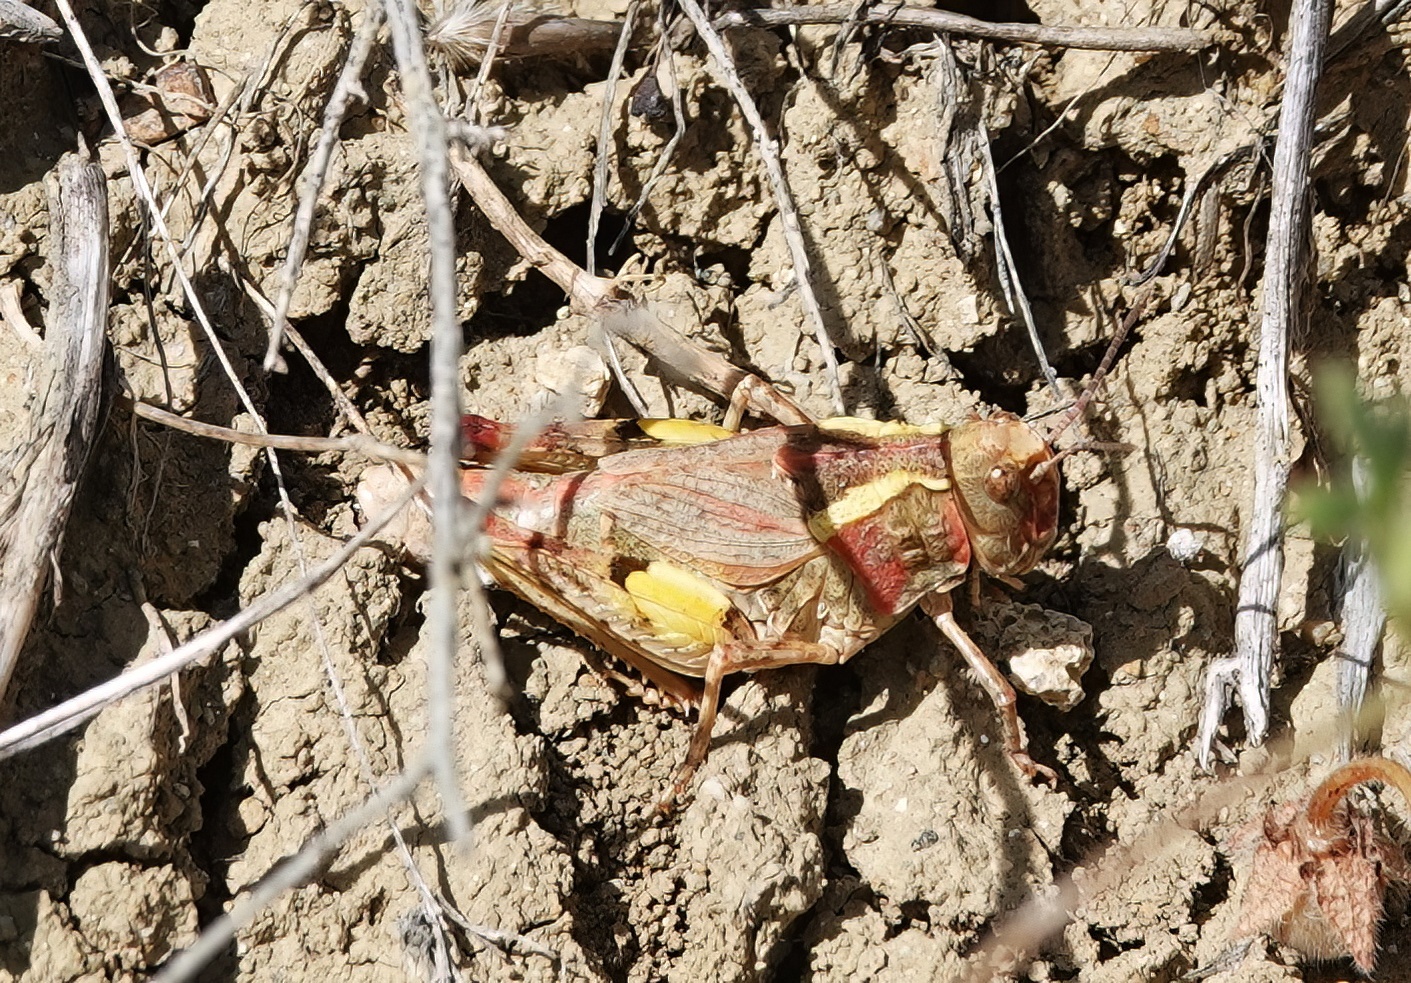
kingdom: Animalia
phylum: Arthropoda
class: Insecta
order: Orthoptera
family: Acrididae
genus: Esselenia
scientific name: Esselenia vanduzeei
